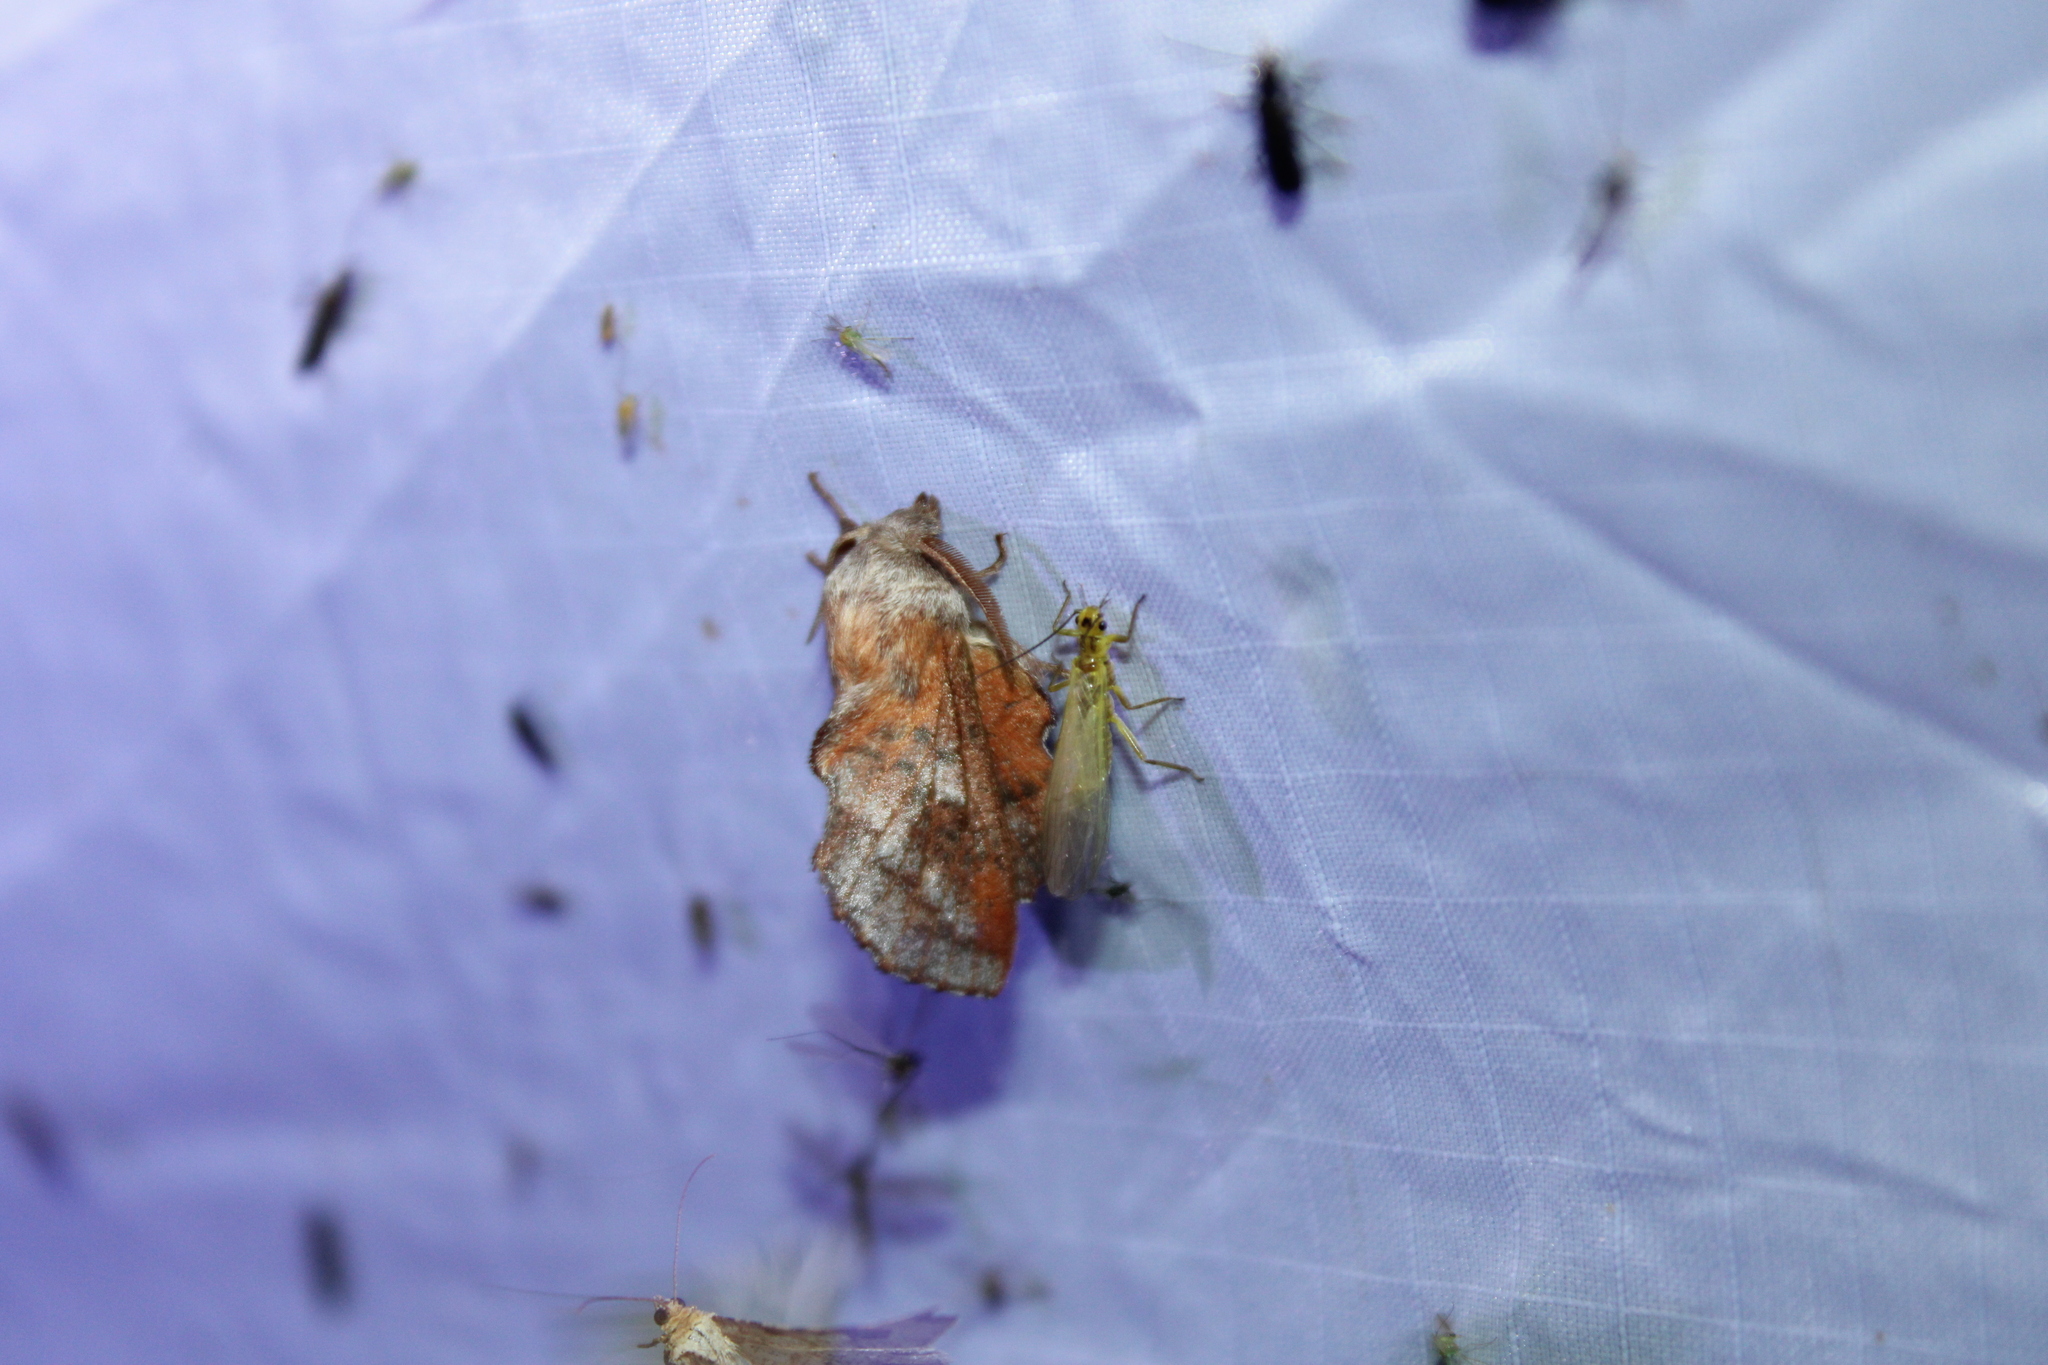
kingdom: Animalia
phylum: Arthropoda
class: Insecta
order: Lepidoptera
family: Lasiocampidae
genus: Phyllodesma
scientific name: Phyllodesma americana
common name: American lappet moth
